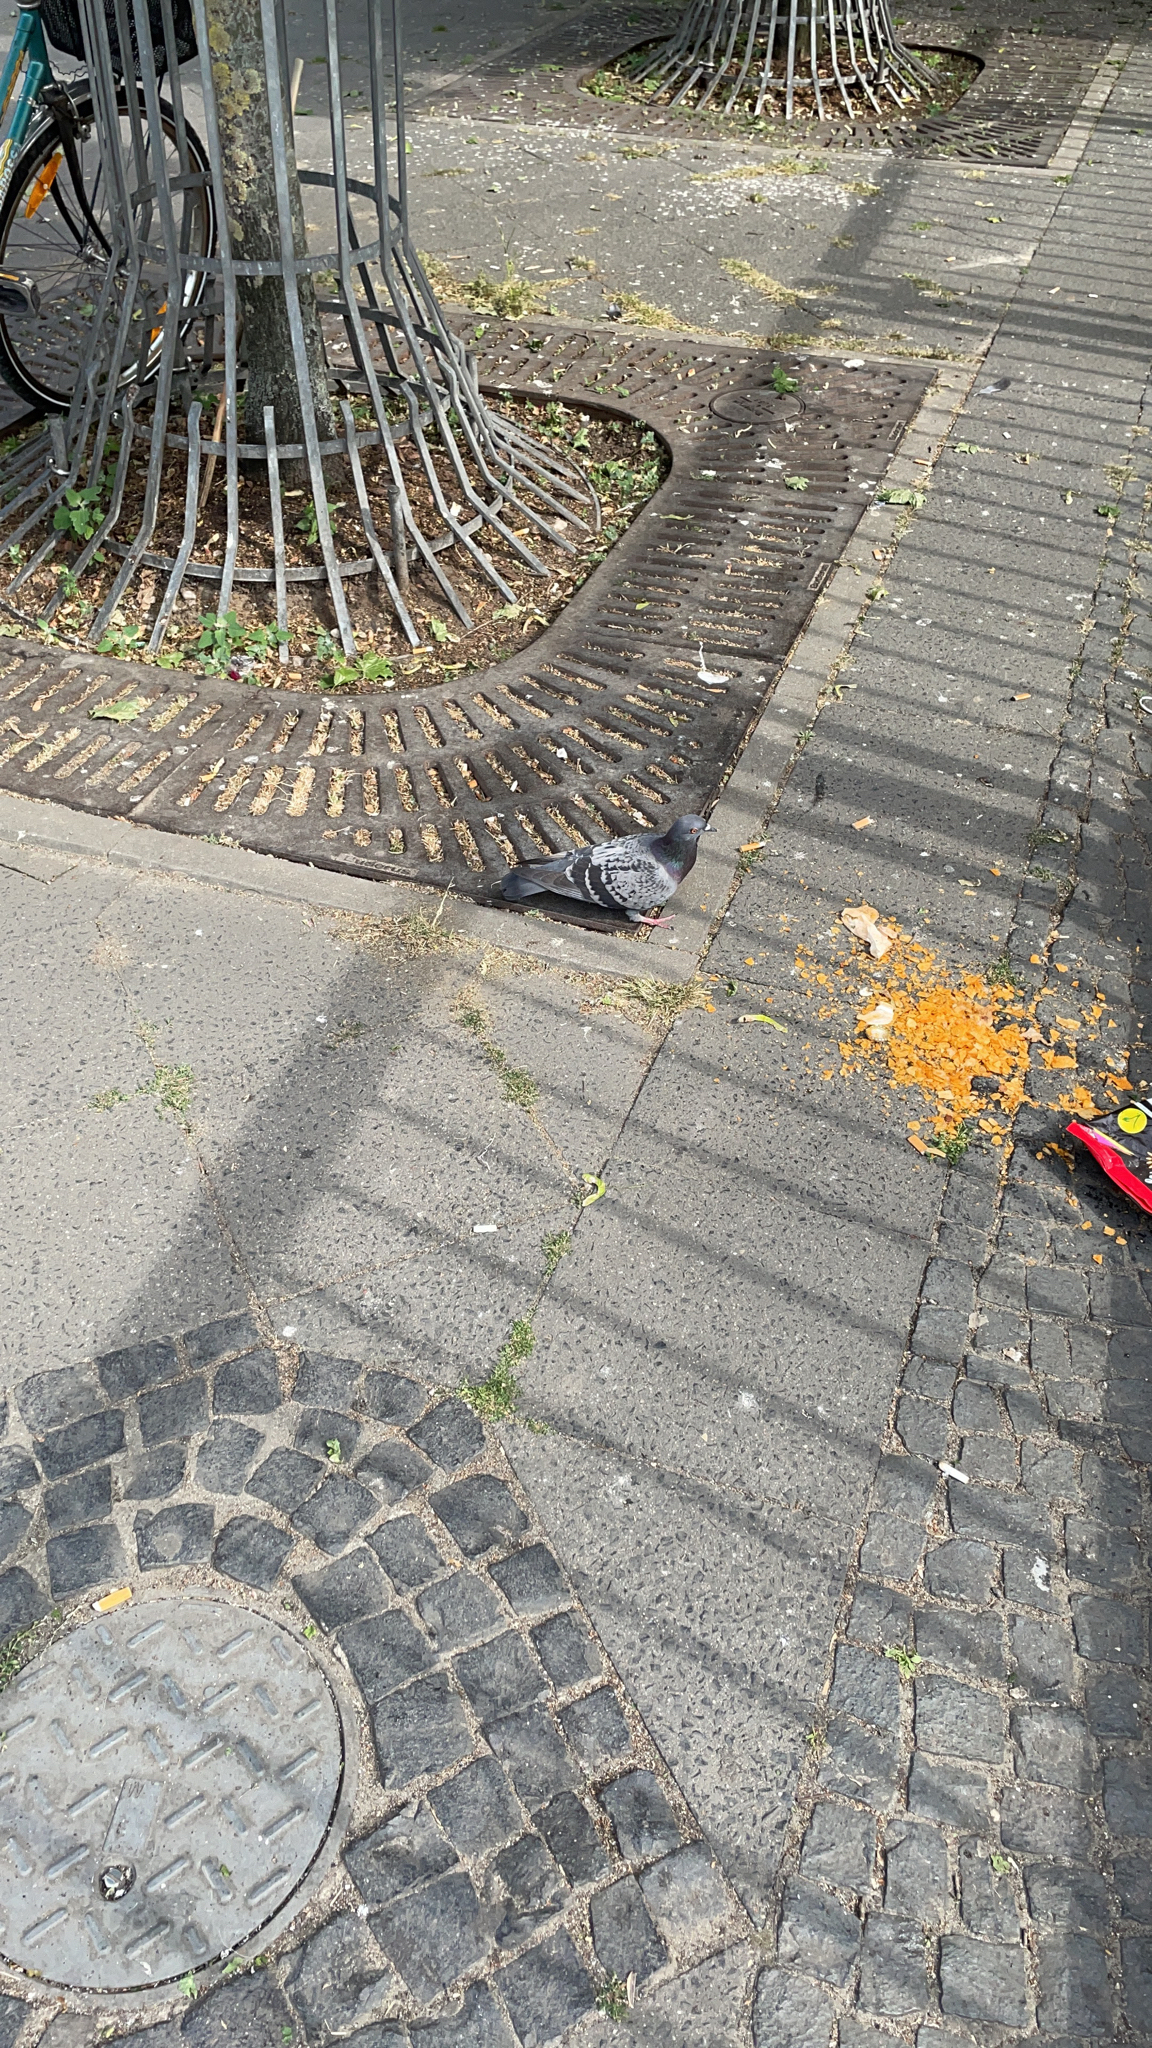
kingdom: Animalia
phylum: Chordata
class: Aves
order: Columbiformes
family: Columbidae
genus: Columba
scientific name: Columba livia
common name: Rock pigeon
